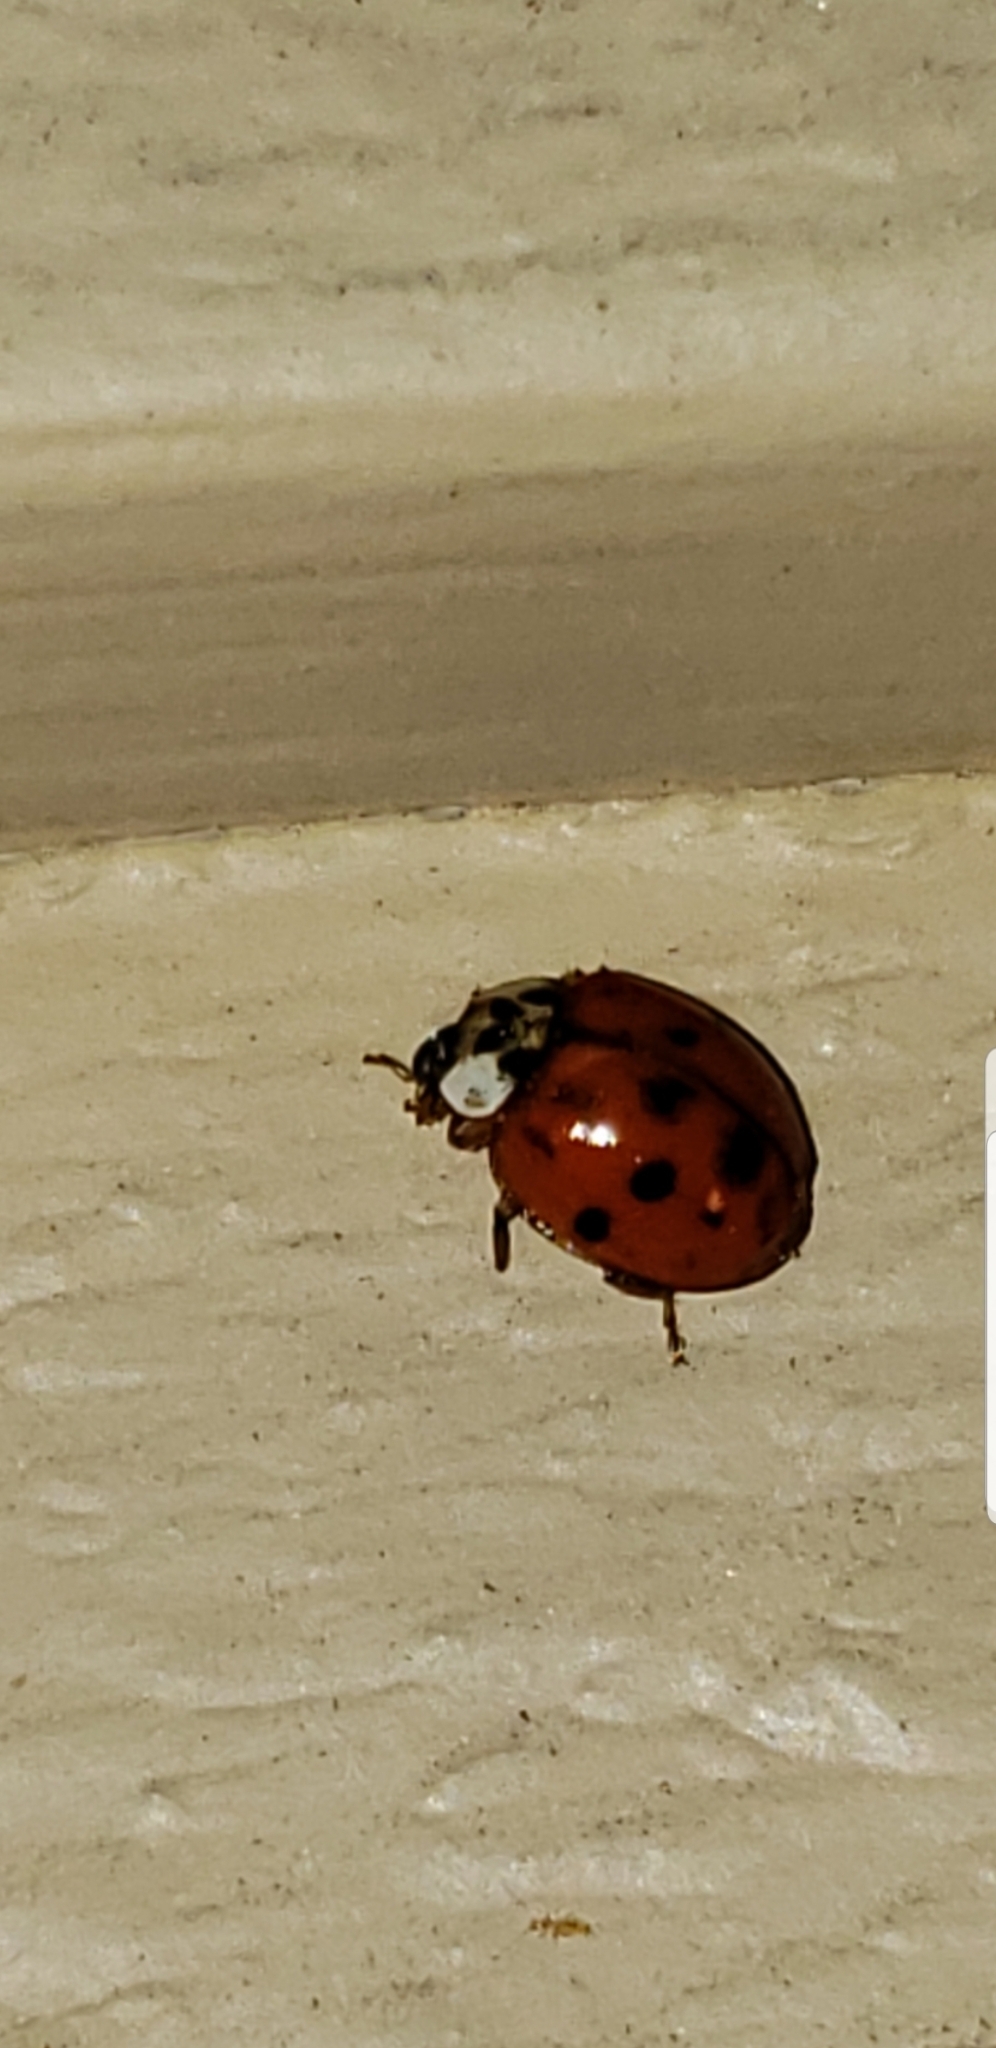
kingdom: Animalia
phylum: Arthropoda
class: Insecta
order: Coleoptera
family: Coccinellidae
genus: Harmonia
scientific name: Harmonia axyridis
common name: Harlequin ladybird
